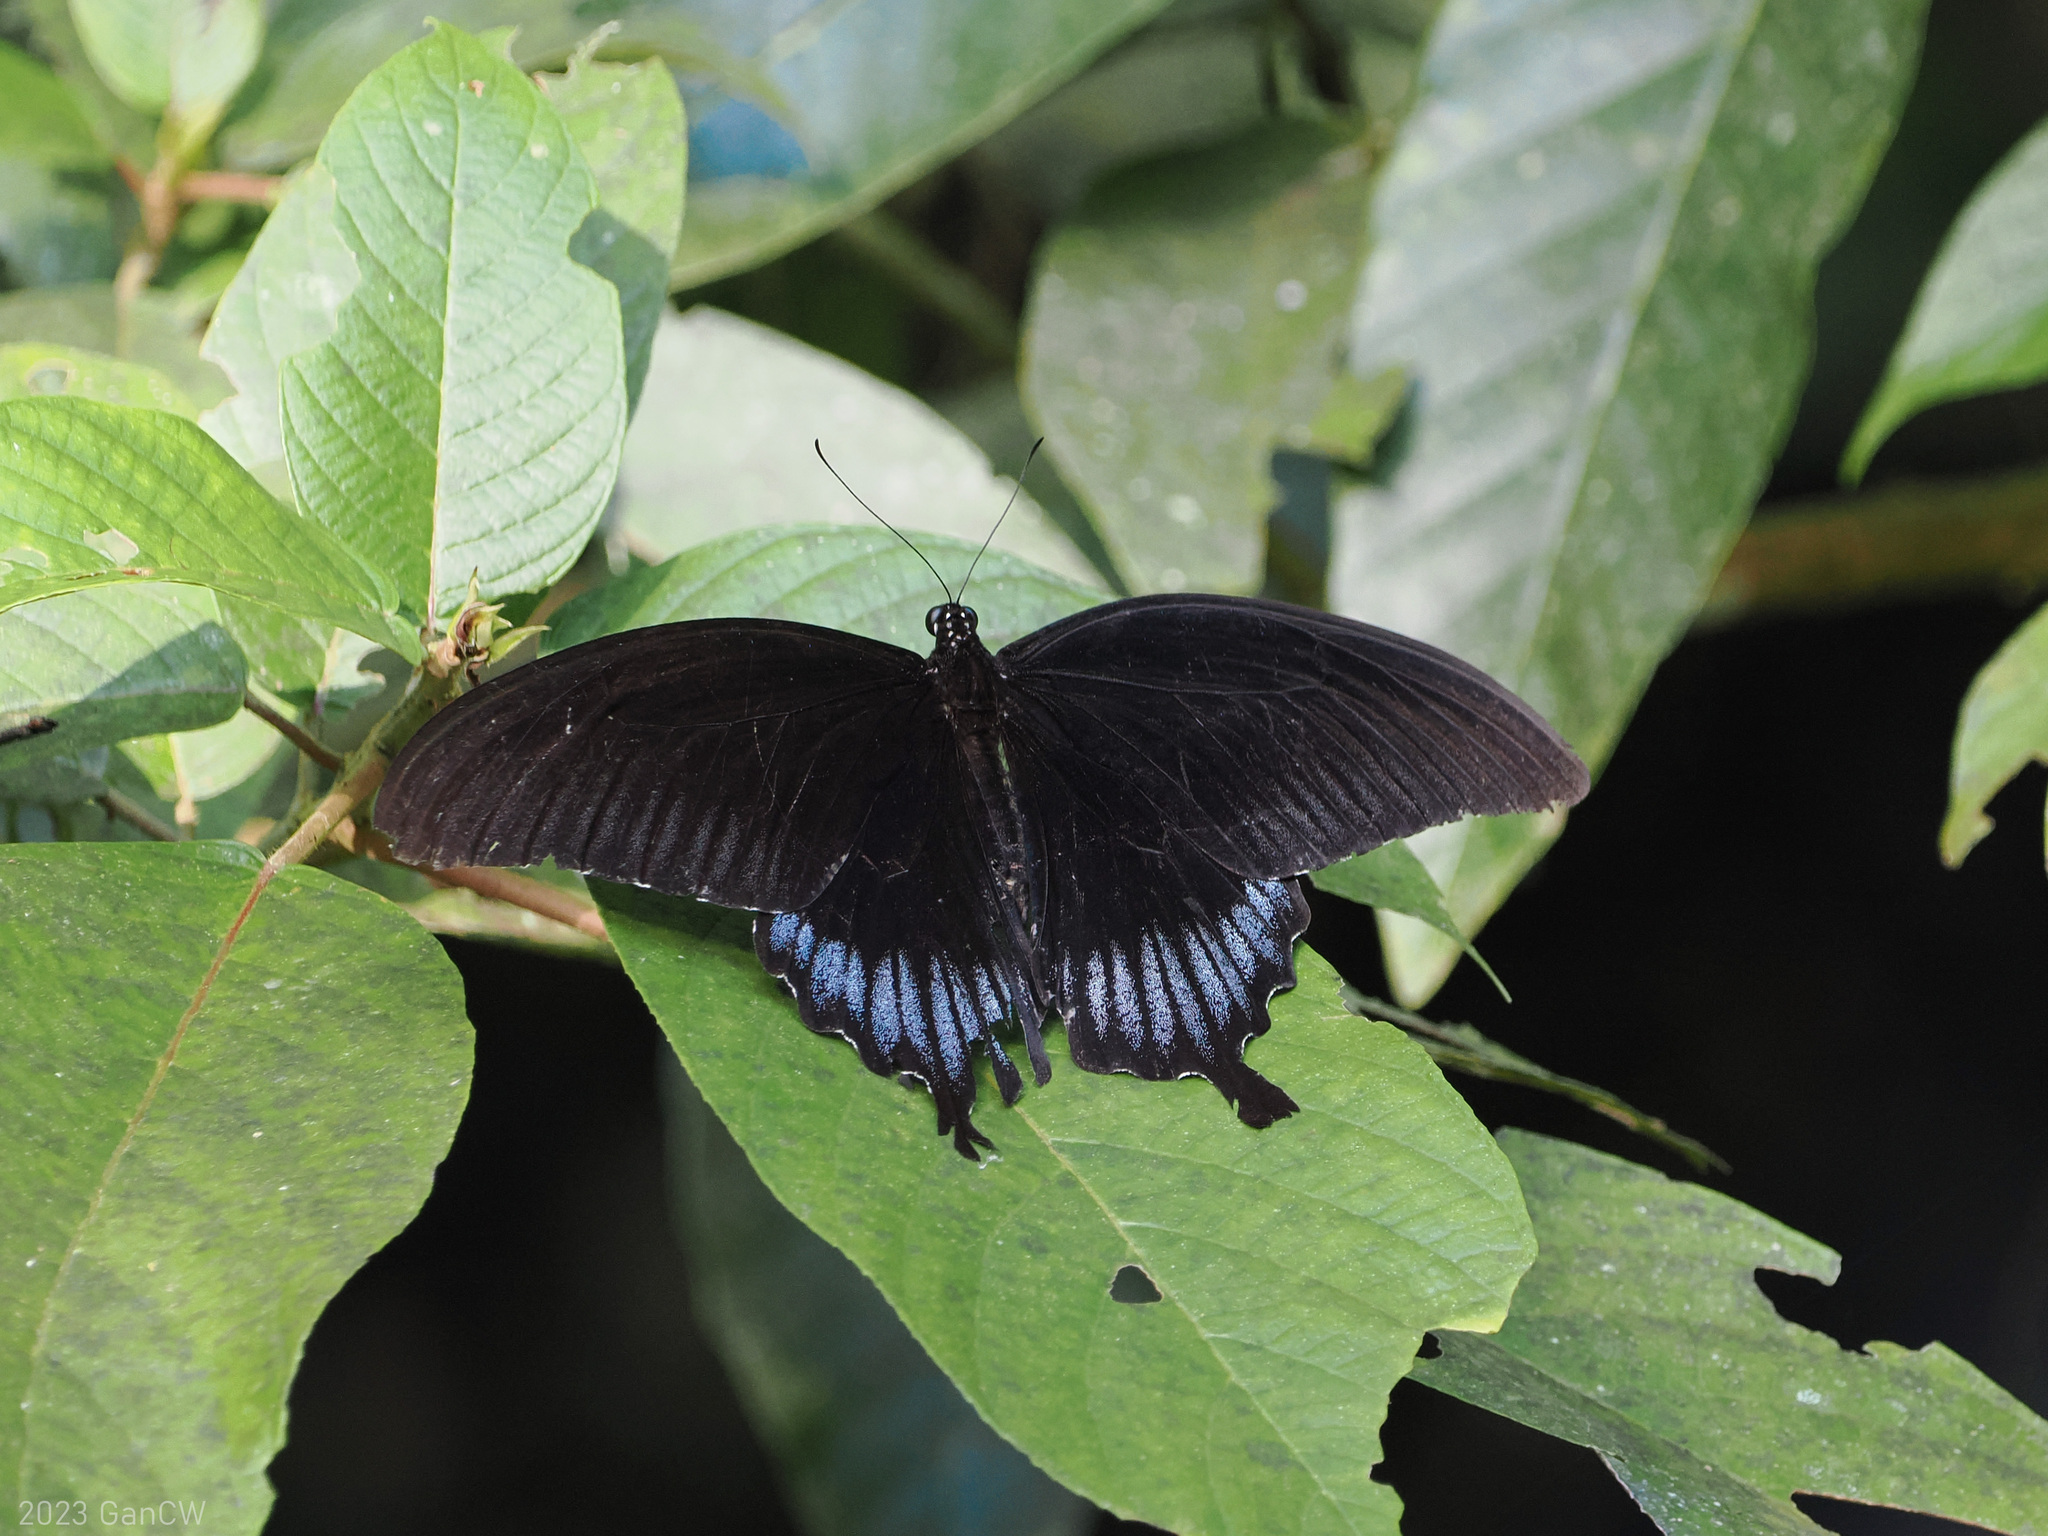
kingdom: Animalia
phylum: Arthropoda
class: Insecta
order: Lepidoptera
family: Papilionidae
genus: Papilio
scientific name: Papilio ascalaphus
